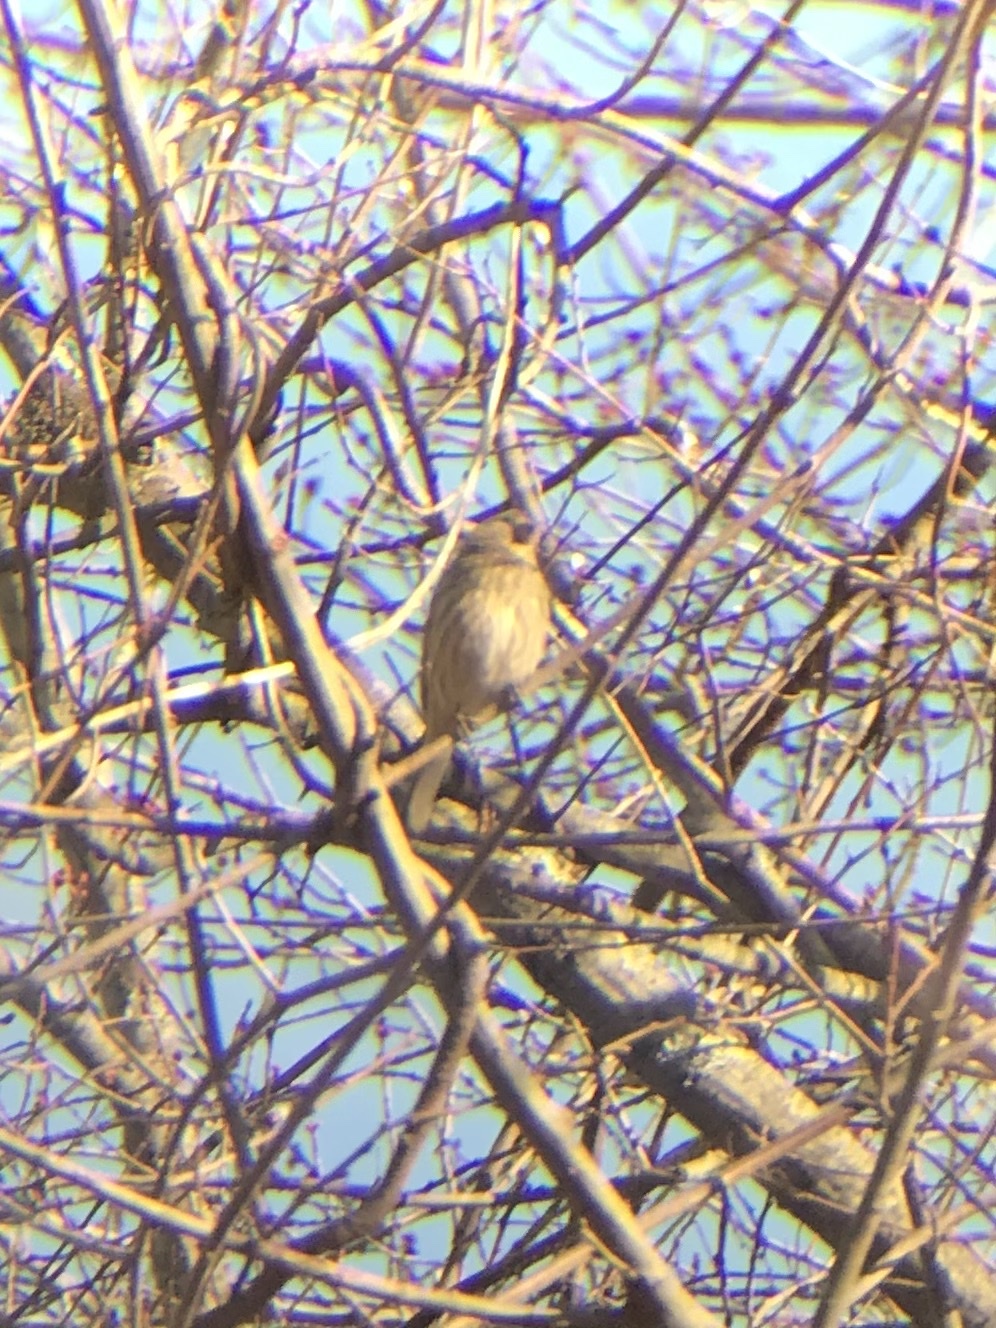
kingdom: Animalia
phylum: Chordata
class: Aves
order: Passeriformes
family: Fringillidae
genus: Haemorhous
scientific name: Haemorhous mexicanus
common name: House finch
